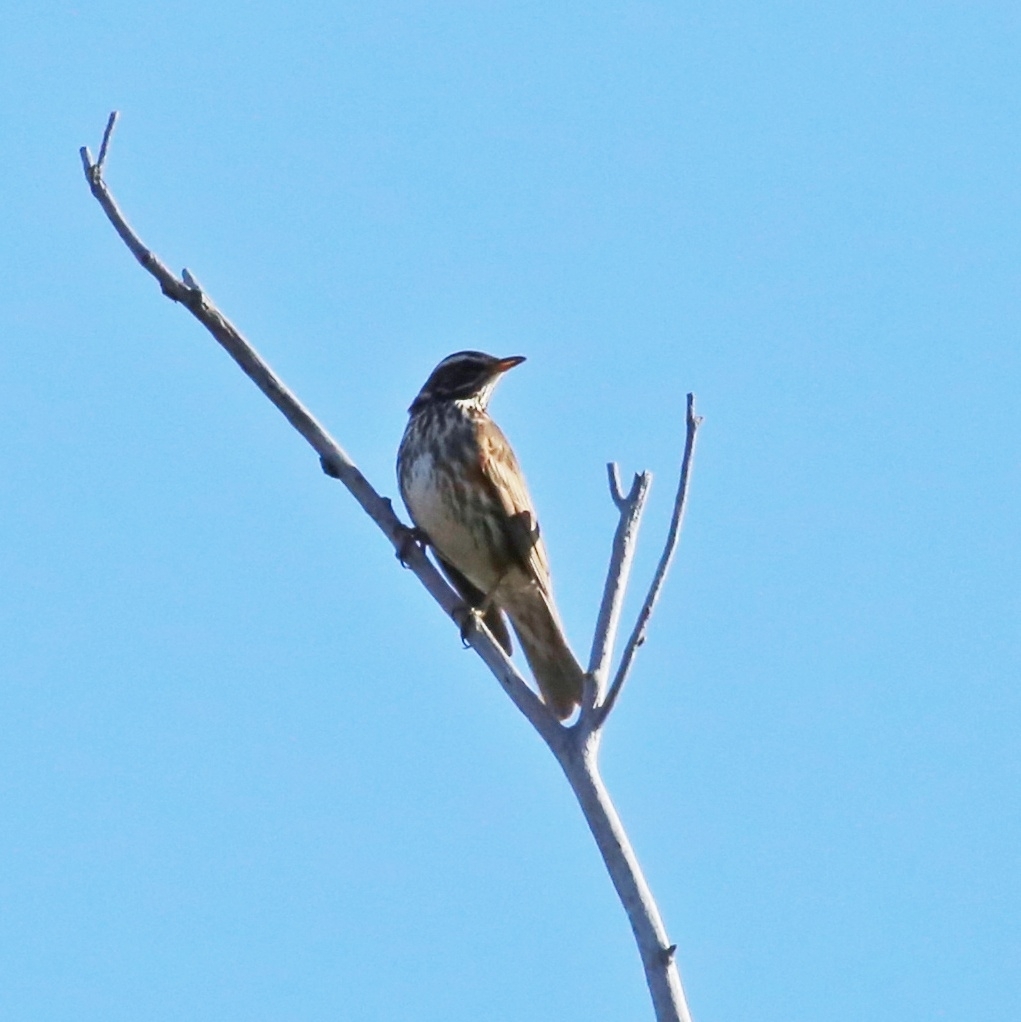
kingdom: Animalia
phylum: Chordata
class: Aves
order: Passeriformes
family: Turdidae
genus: Turdus
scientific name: Turdus iliacus
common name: Redwing
